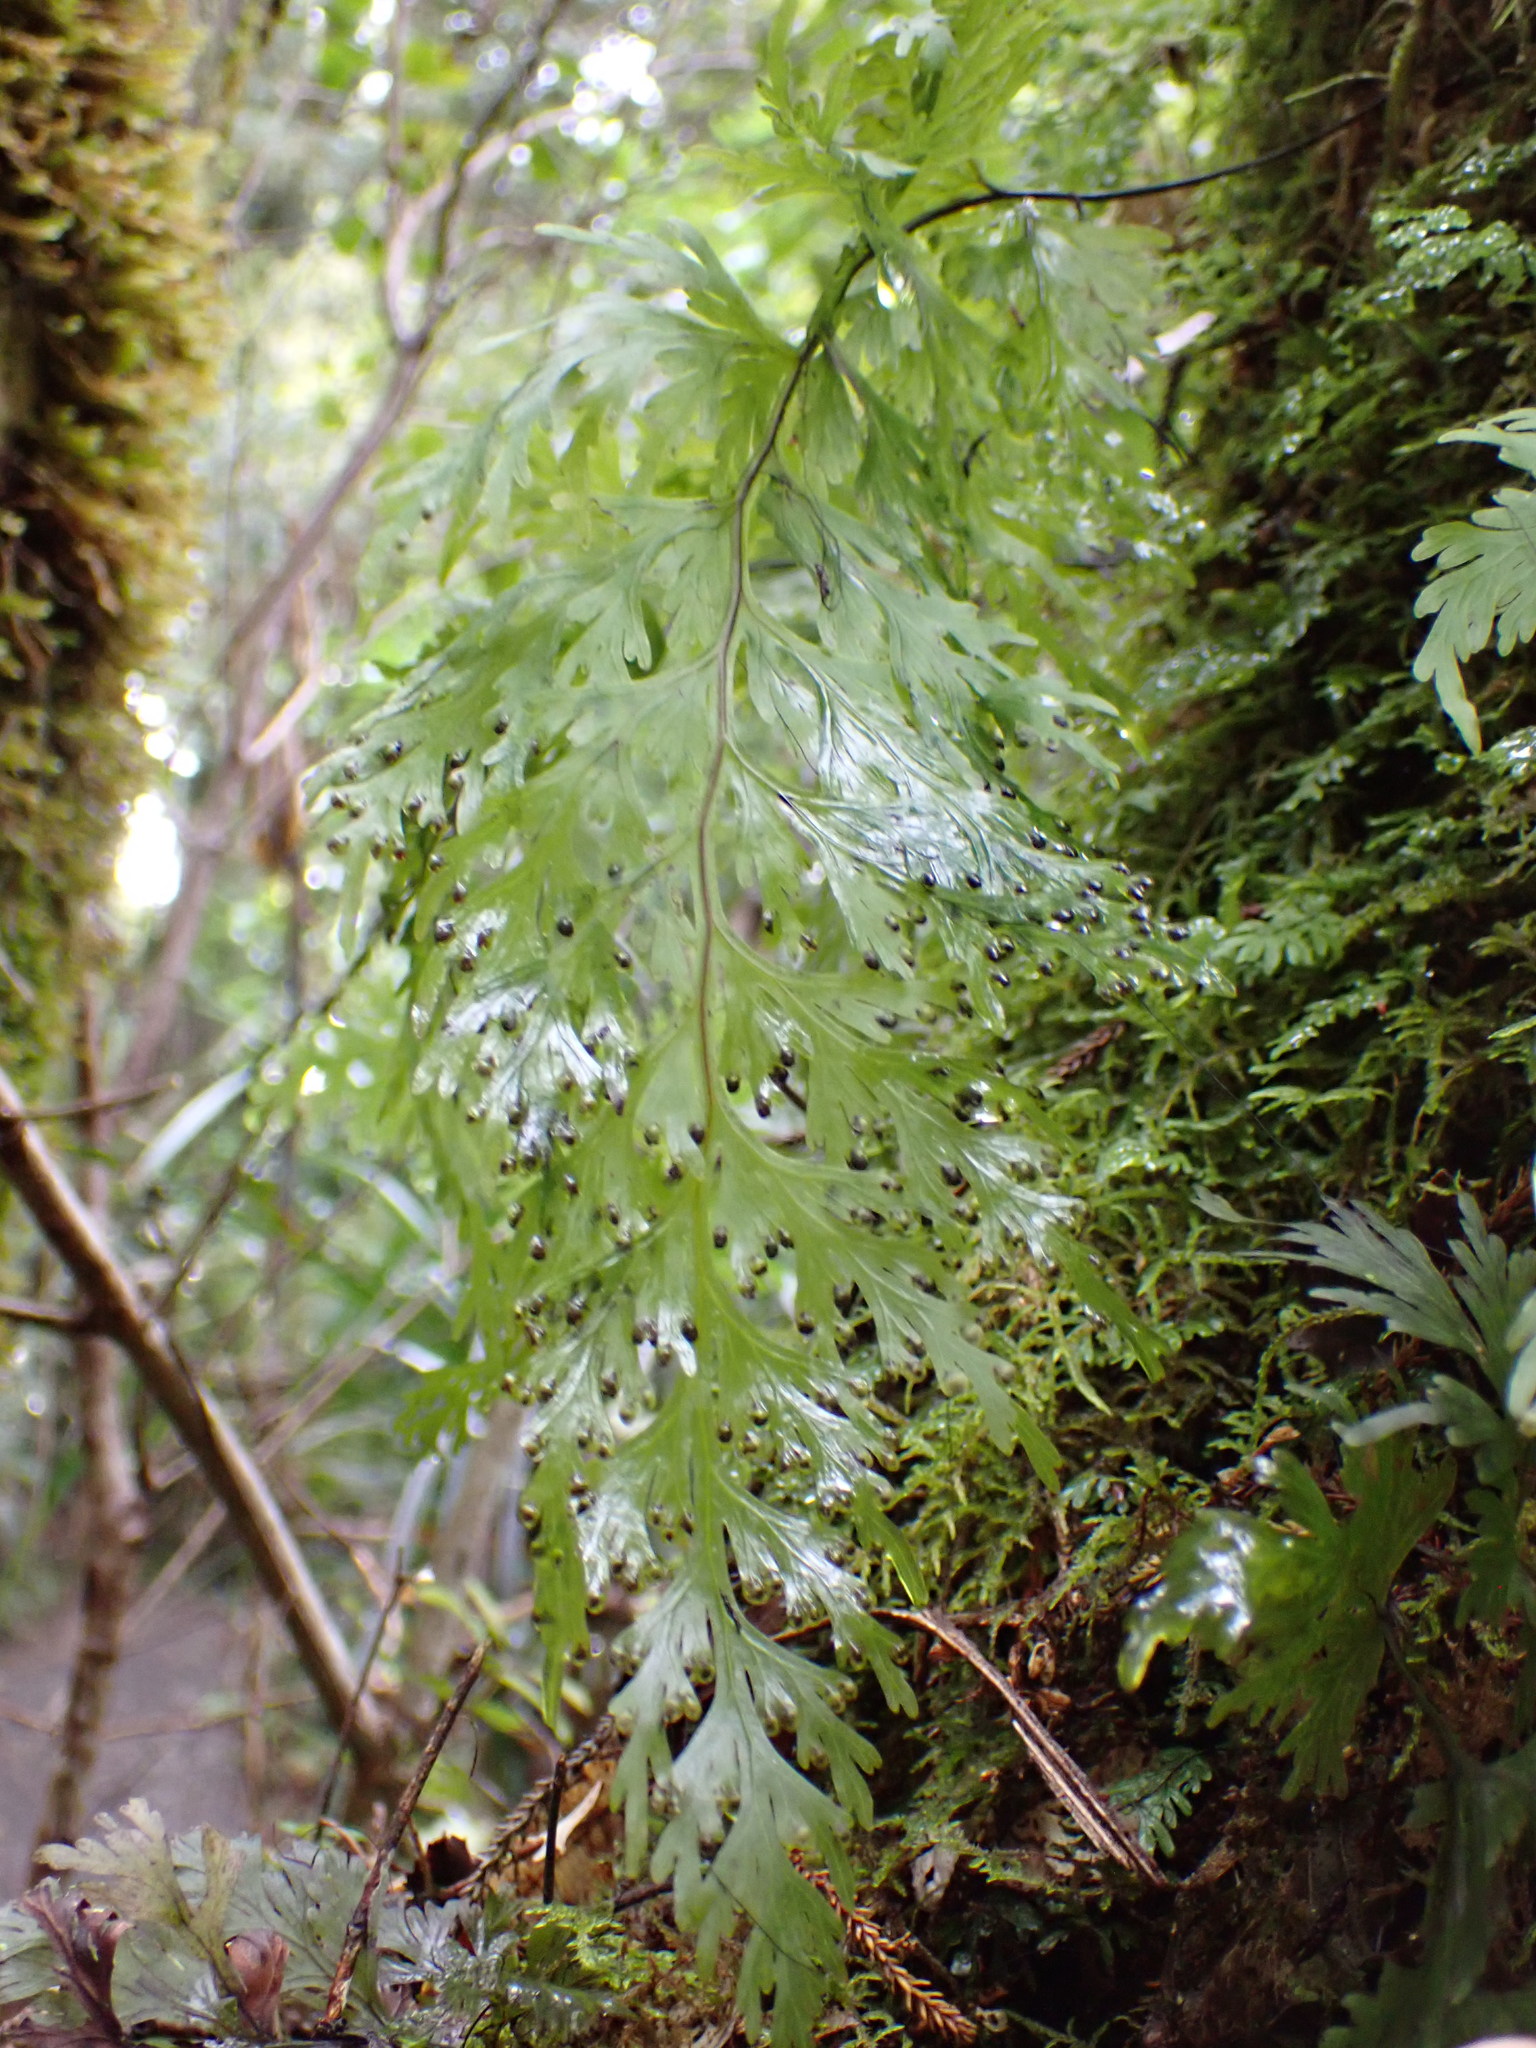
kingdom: Plantae
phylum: Tracheophyta
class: Polypodiopsida
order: Hymenophyllales
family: Hymenophyllaceae
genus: Hymenophyllum
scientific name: Hymenophyllum dilatatum
